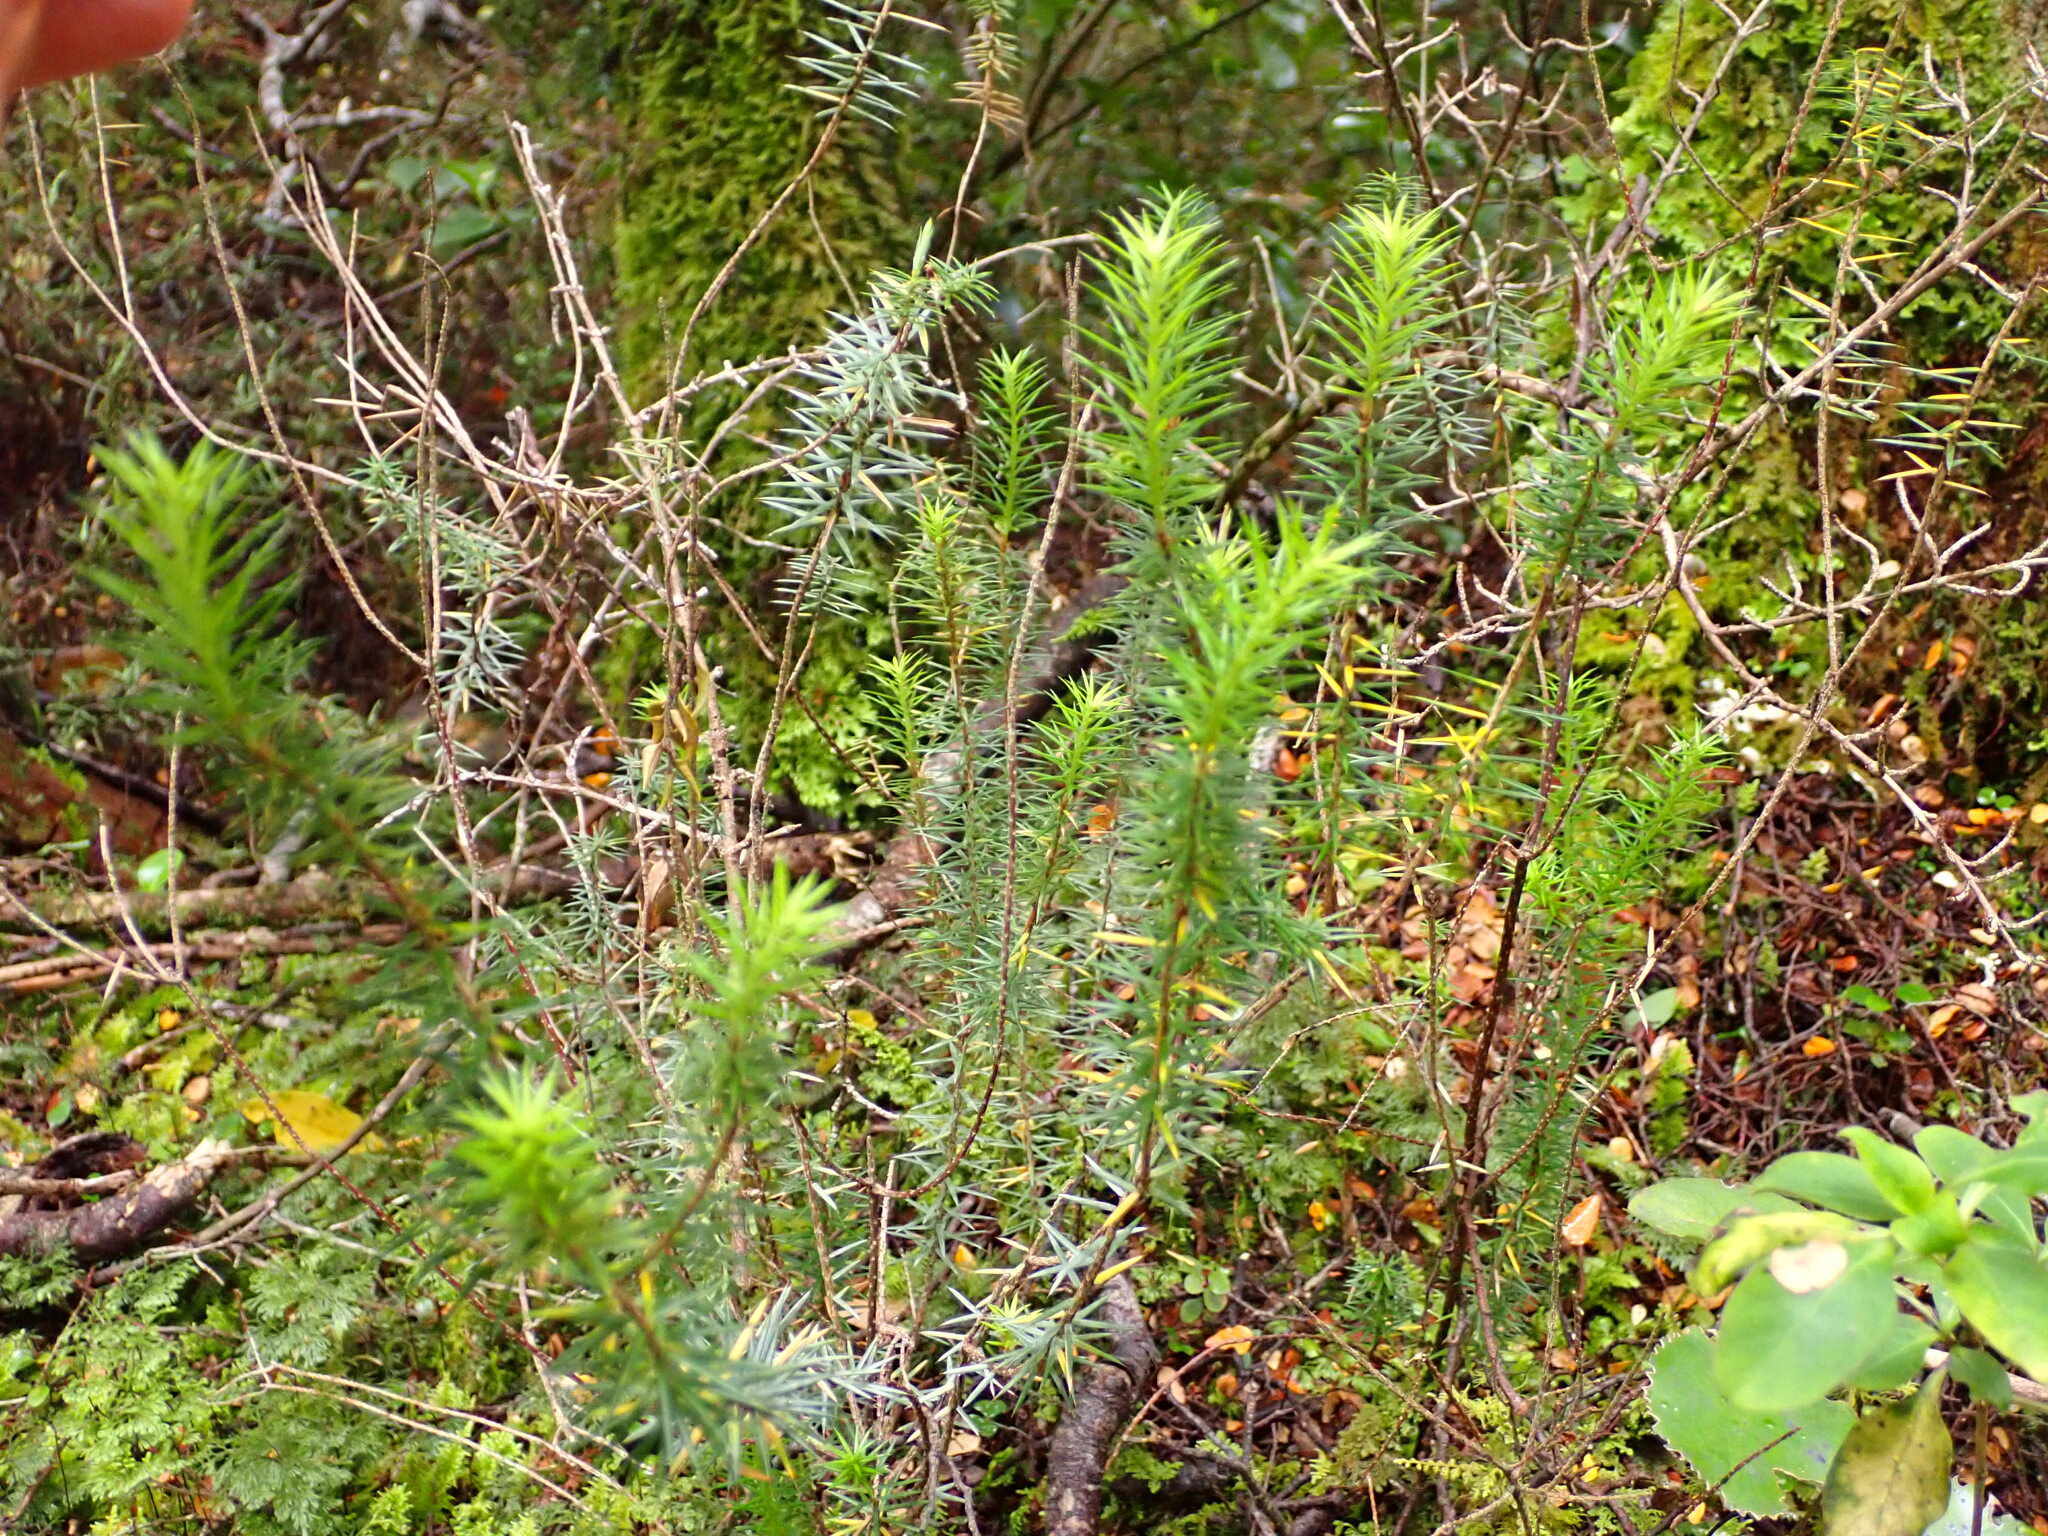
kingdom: Plantae
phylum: Tracheophyta
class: Magnoliopsida
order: Ericales
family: Ericaceae
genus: Leptecophylla
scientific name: Leptecophylla juniperina
